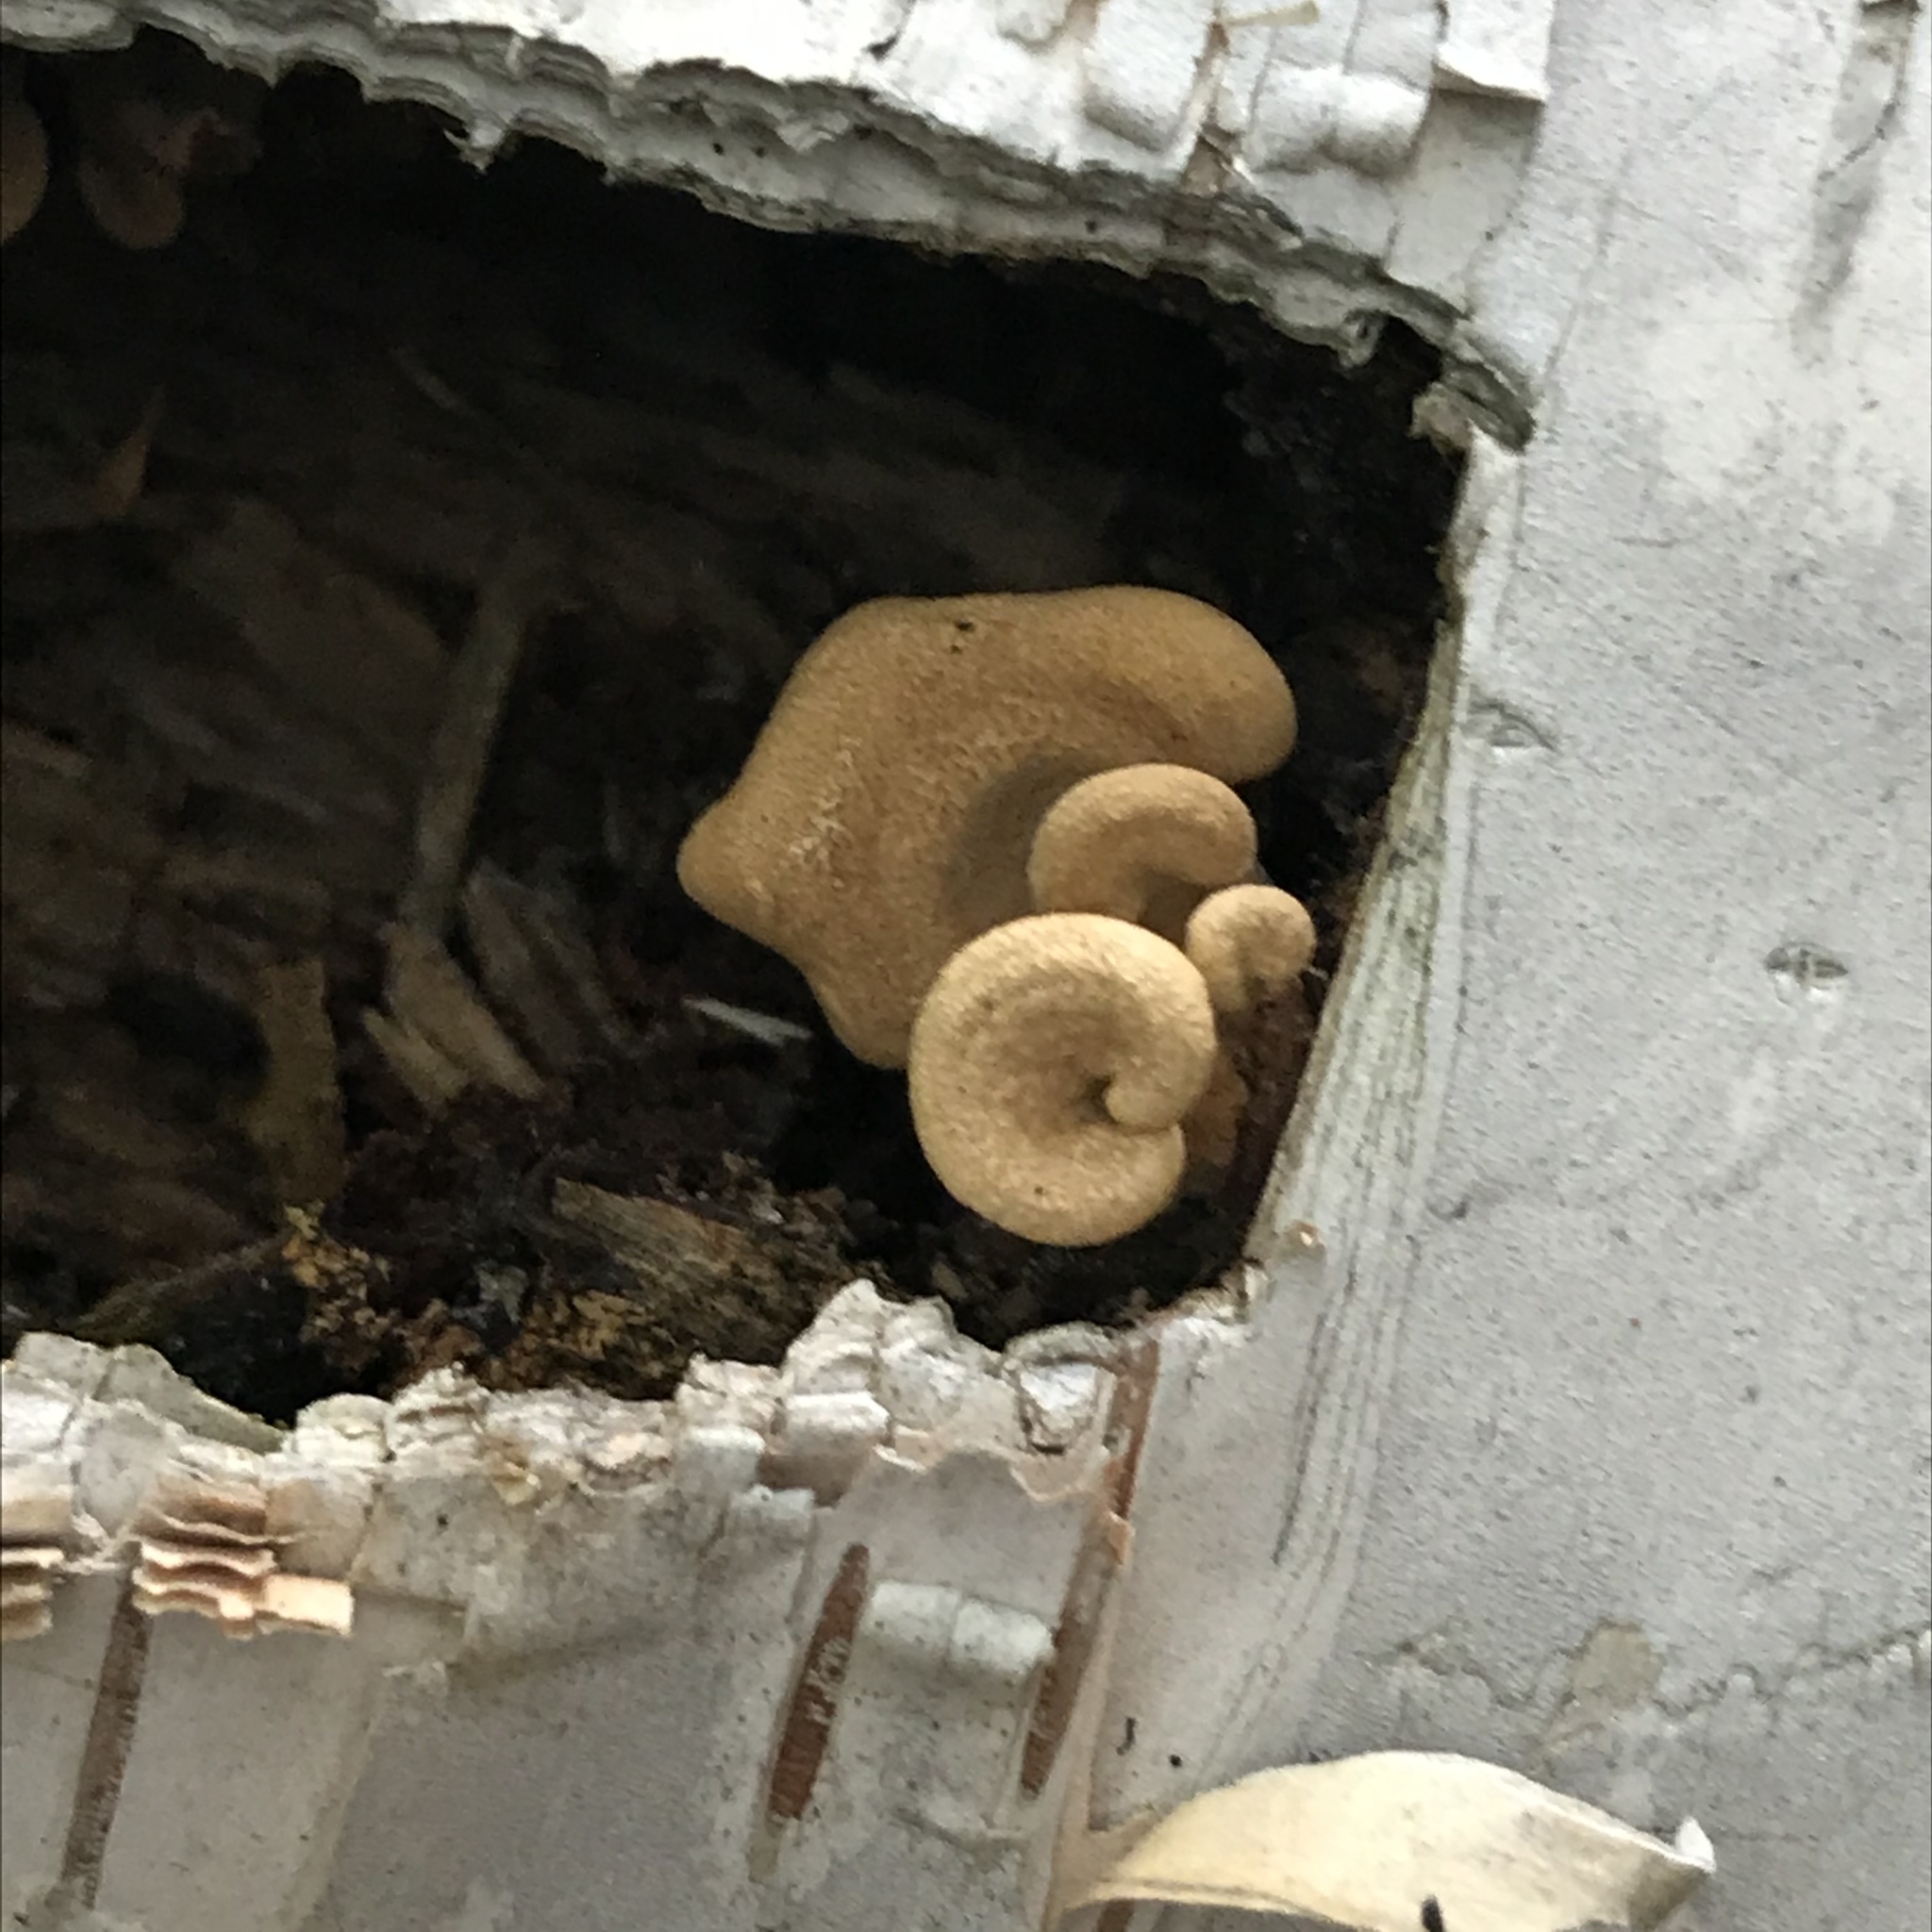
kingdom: Fungi
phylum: Basidiomycota
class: Agaricomycetes
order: Agaricales
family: Mycenaceae
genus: Panellus
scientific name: Panellus stipticus
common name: Bitter oysterling
